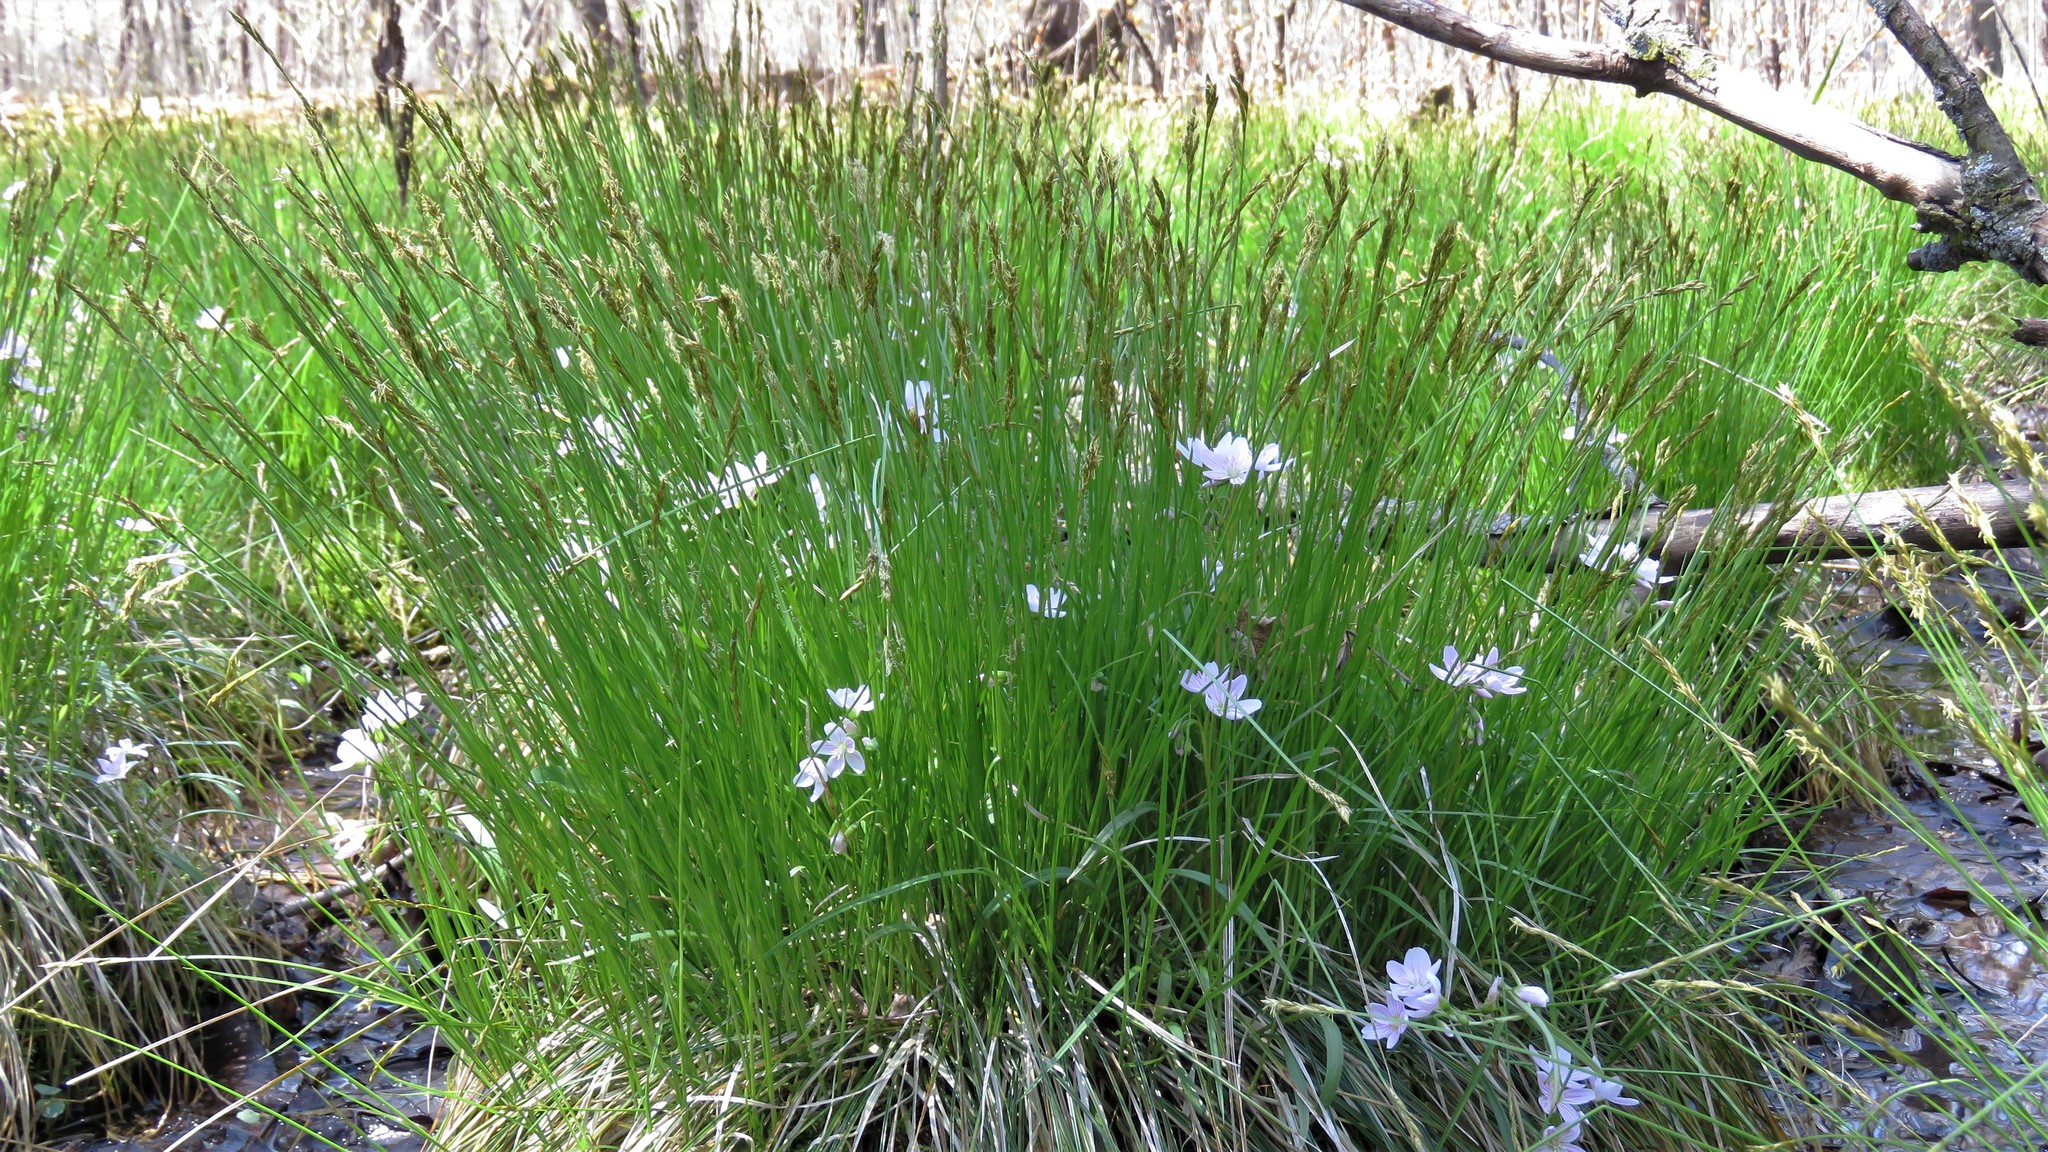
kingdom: Plantae
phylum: Tracheophyta
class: Magnoliopsida
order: Caryophyllales
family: Montiaceae
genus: Claytonia
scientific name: Claytonia virginica
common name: Virginia springbeauty
